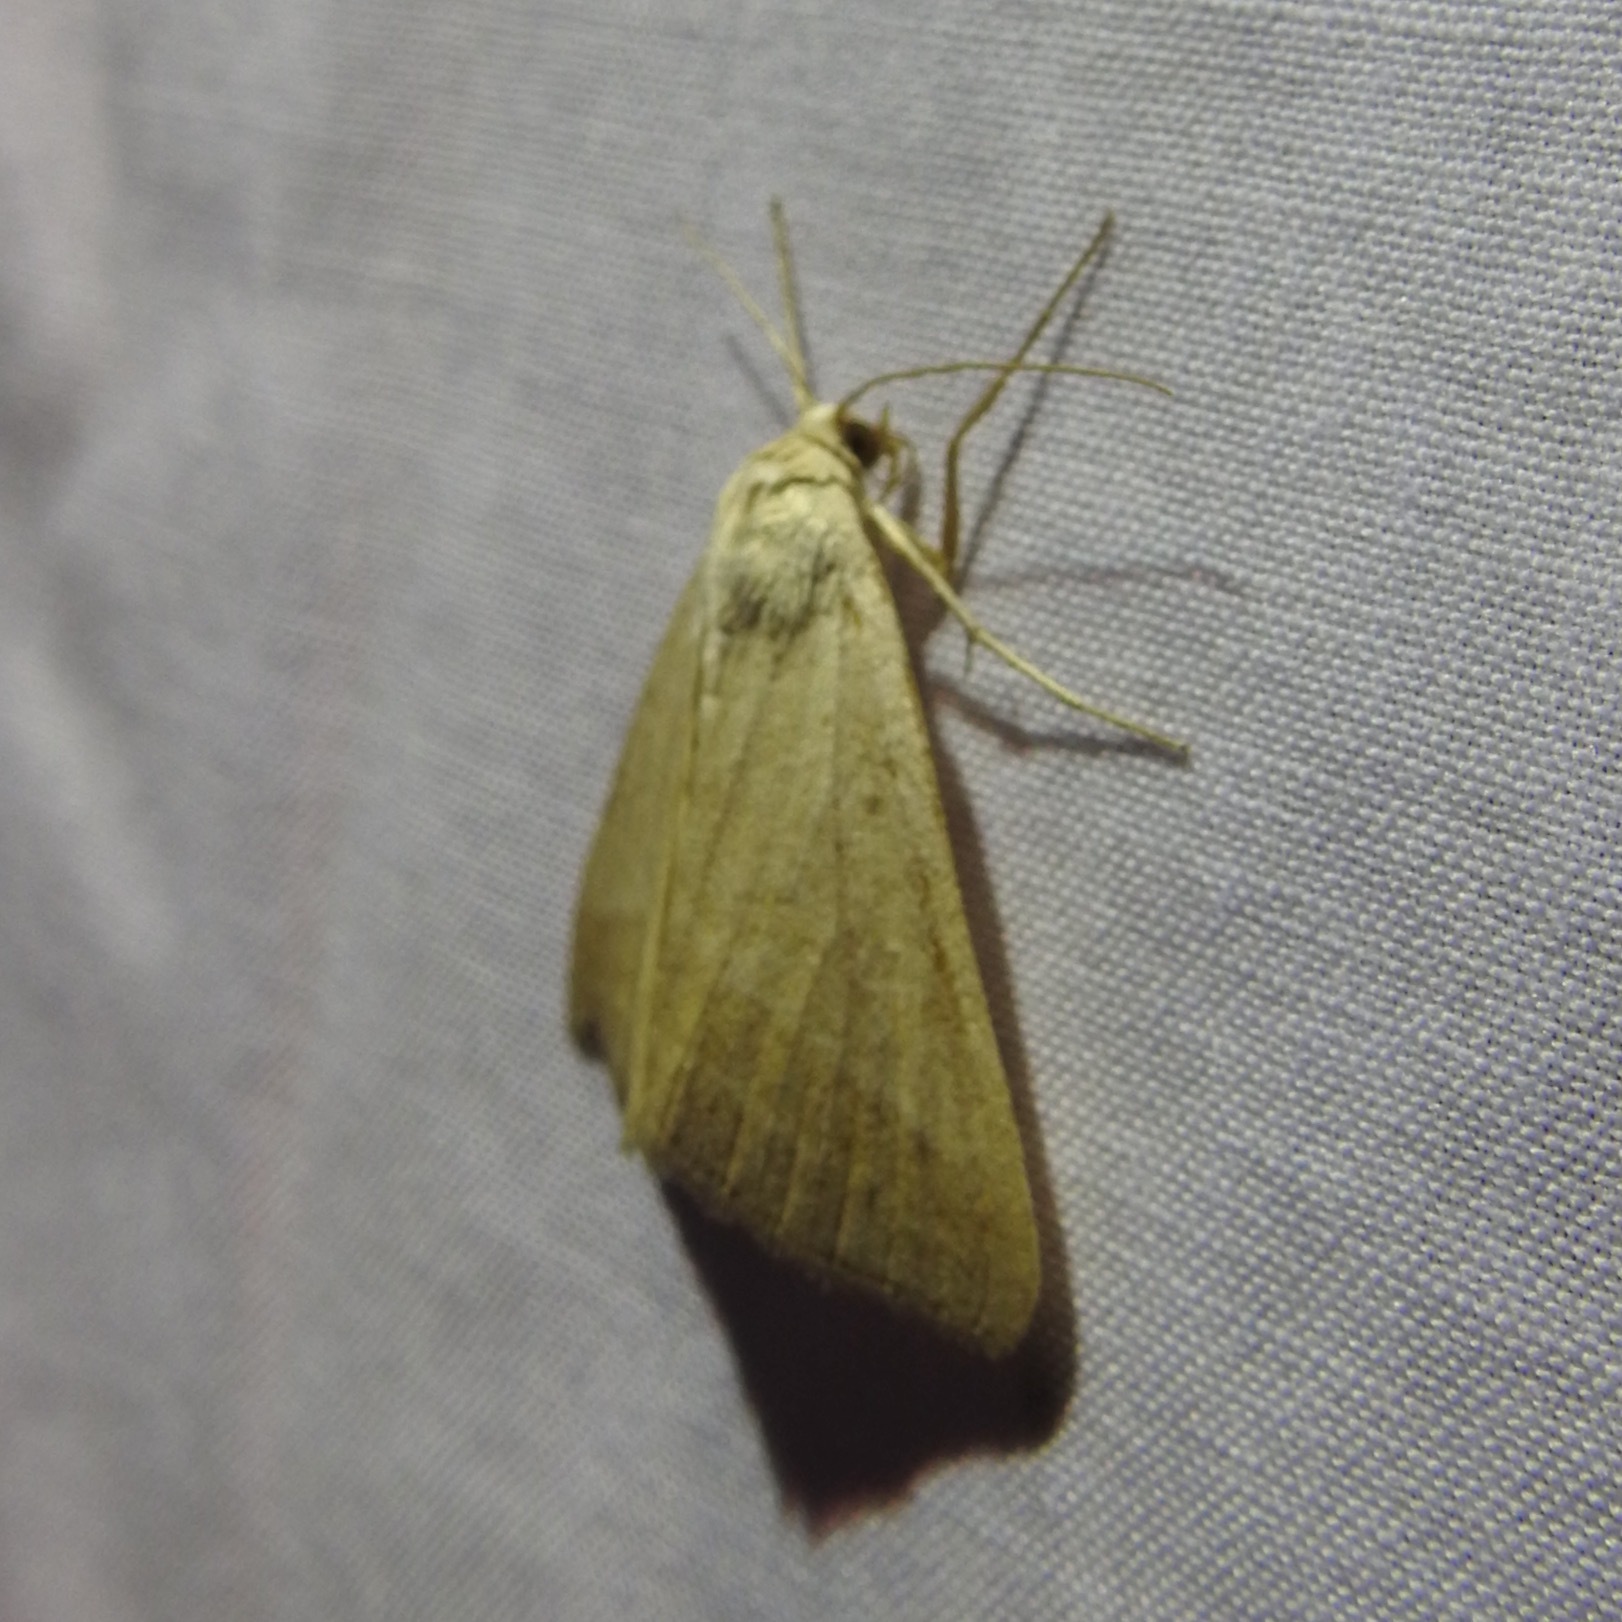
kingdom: Animalia
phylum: Arthropoda
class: Insecta
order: Lepidoptera
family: Erebidae
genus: Caenurgia
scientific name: Caenurgia togataria
